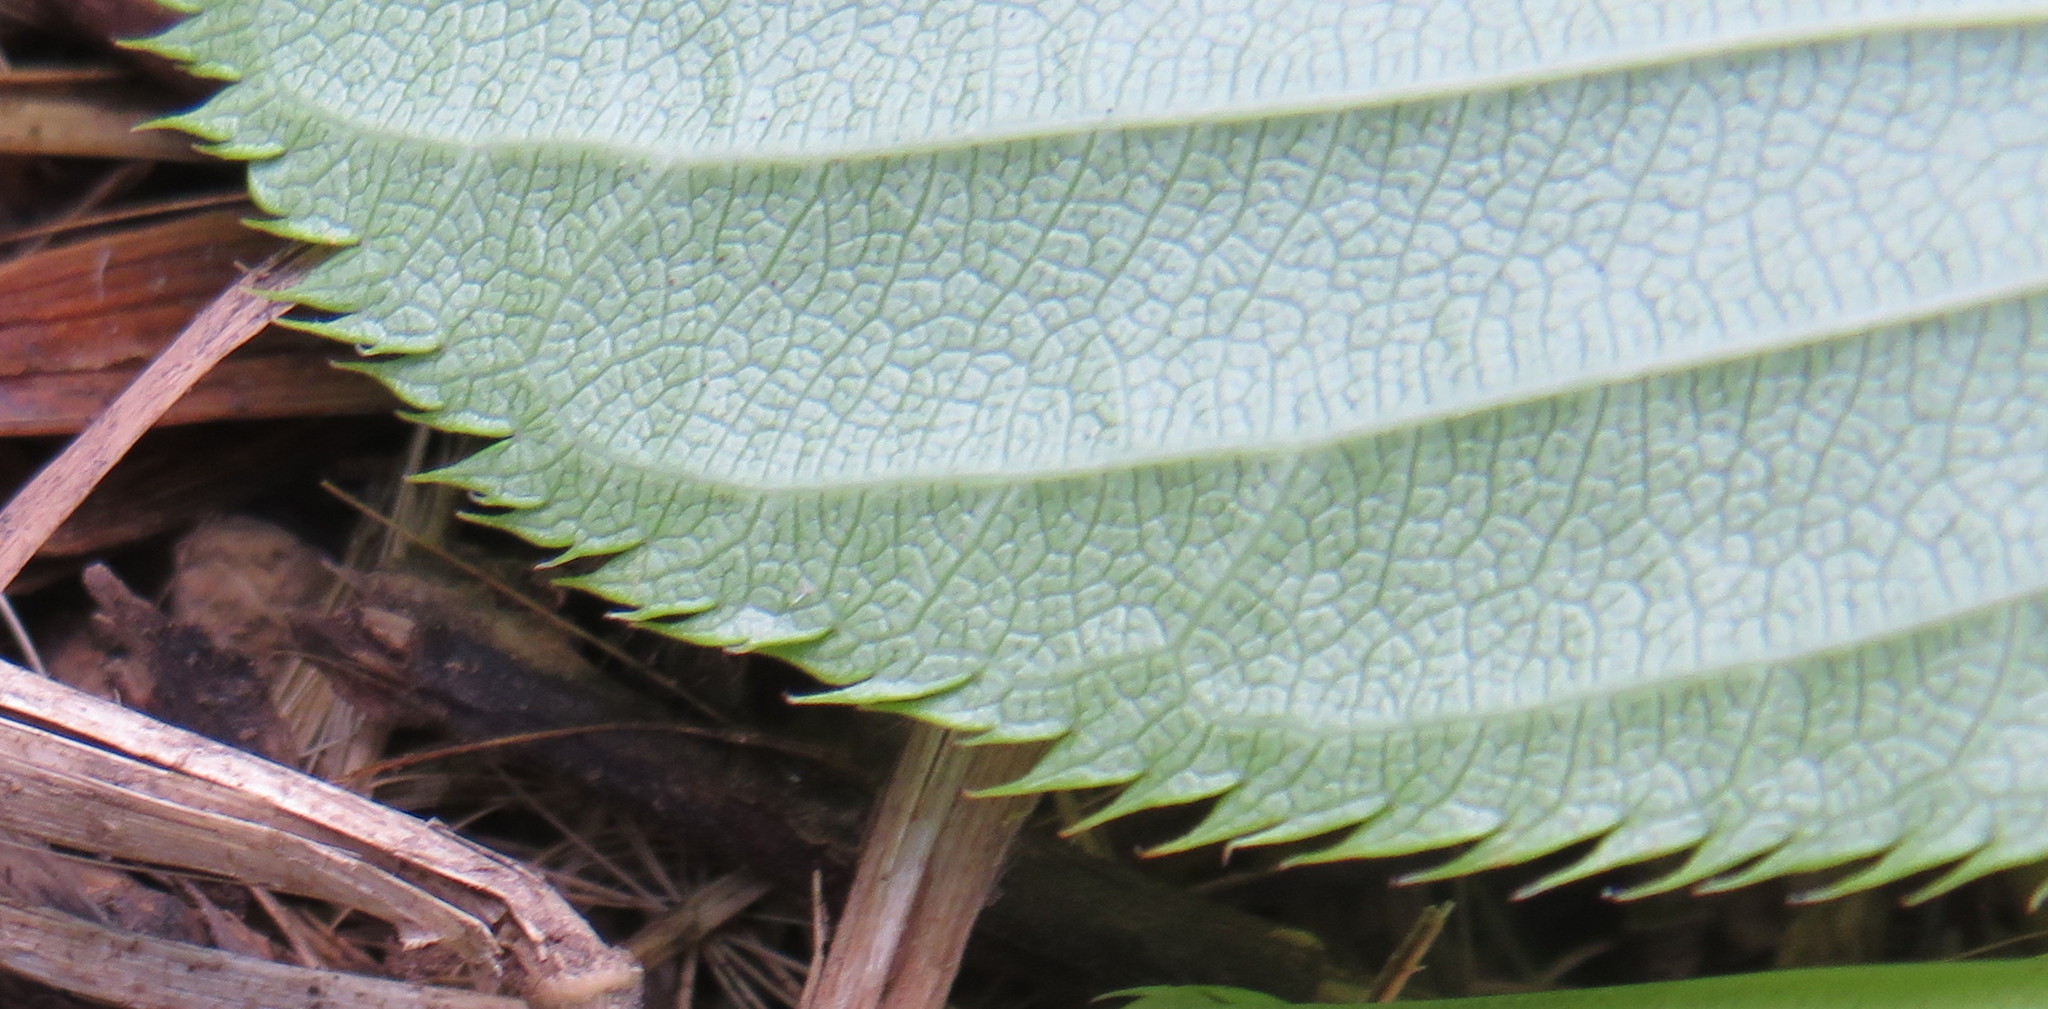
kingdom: Plantae
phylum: Tracheophyta
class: Magnoliopsida
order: Rosales
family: Rosaceae
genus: Prunus
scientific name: Prunus serrulata
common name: Japanese cherry
